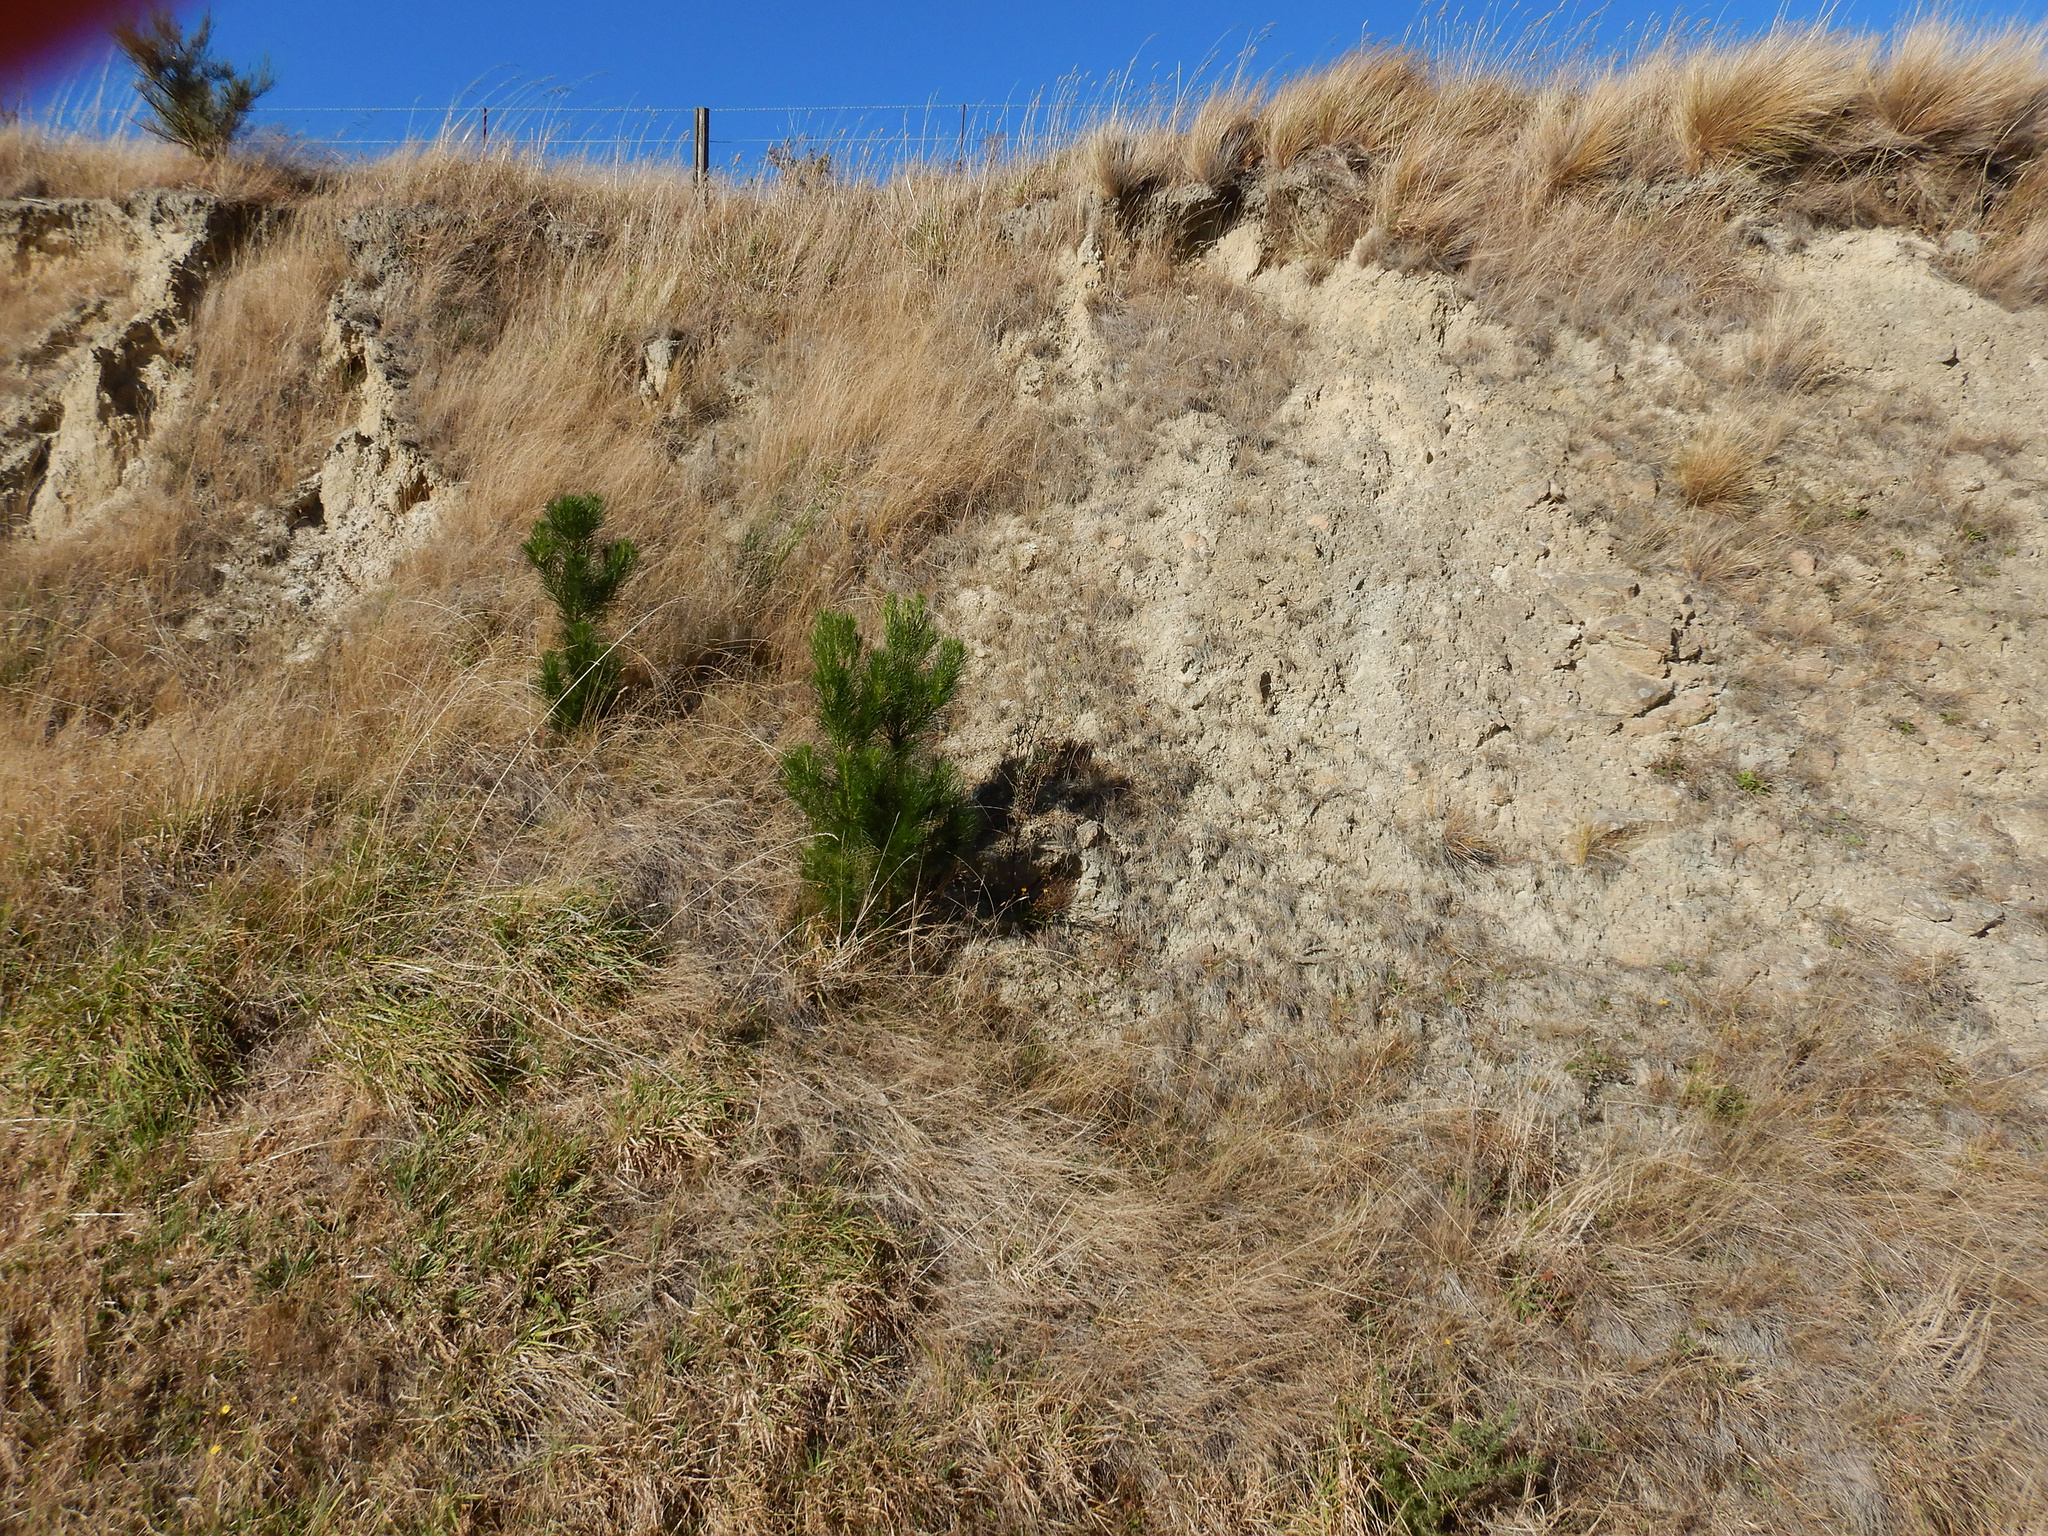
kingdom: Plantae
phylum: Tracheophyta
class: Pinopsida
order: Pinales
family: Pinaceae
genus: Pinus
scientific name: Pinus radiata
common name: Monterey pine
